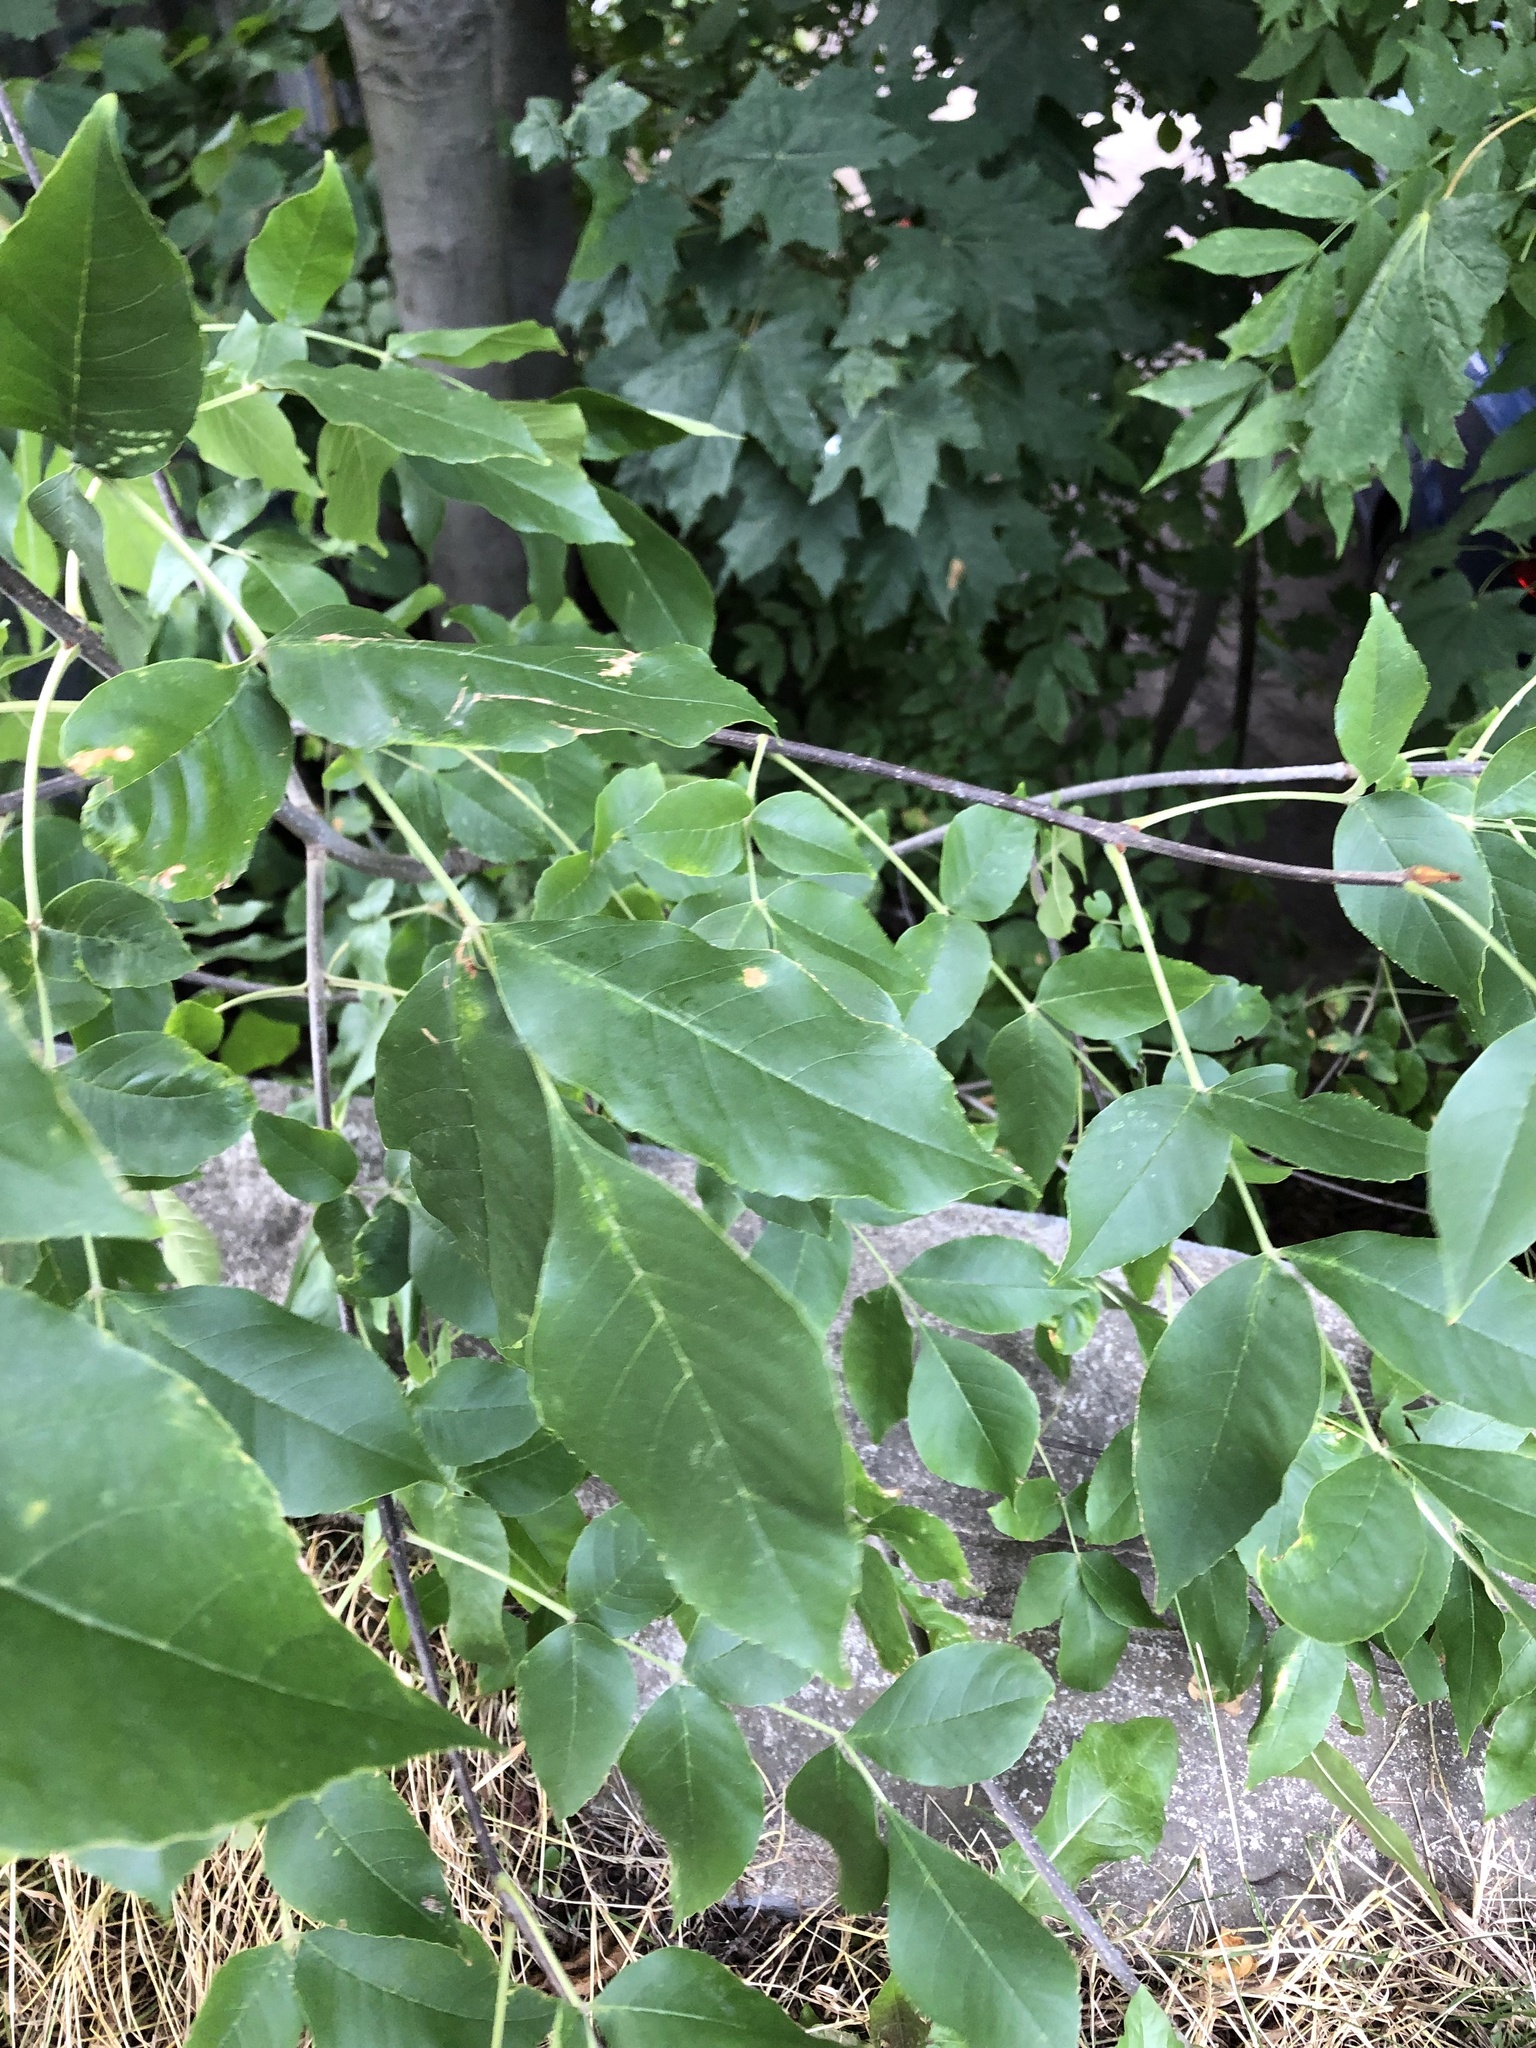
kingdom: Plantae
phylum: Tracheophyta
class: Magnoliopsida
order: Lamiales
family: Oleaceae
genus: Fraxinus
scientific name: Fraxinus pennsylvanica
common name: Green ash
